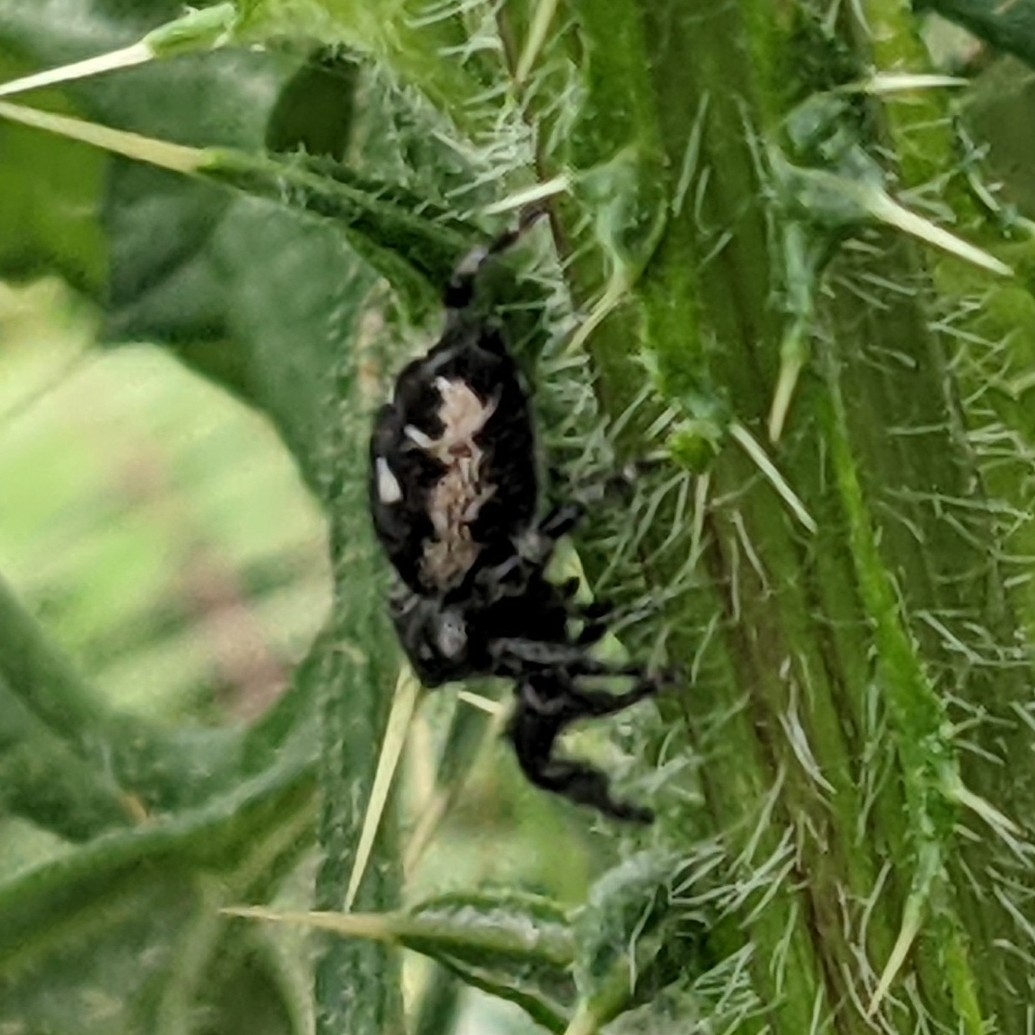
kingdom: Animalia
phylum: Arthropoda
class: Arachnida
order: Araneae
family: Salticidae
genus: Phidippus
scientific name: Phidippus audax
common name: Bold jumper
